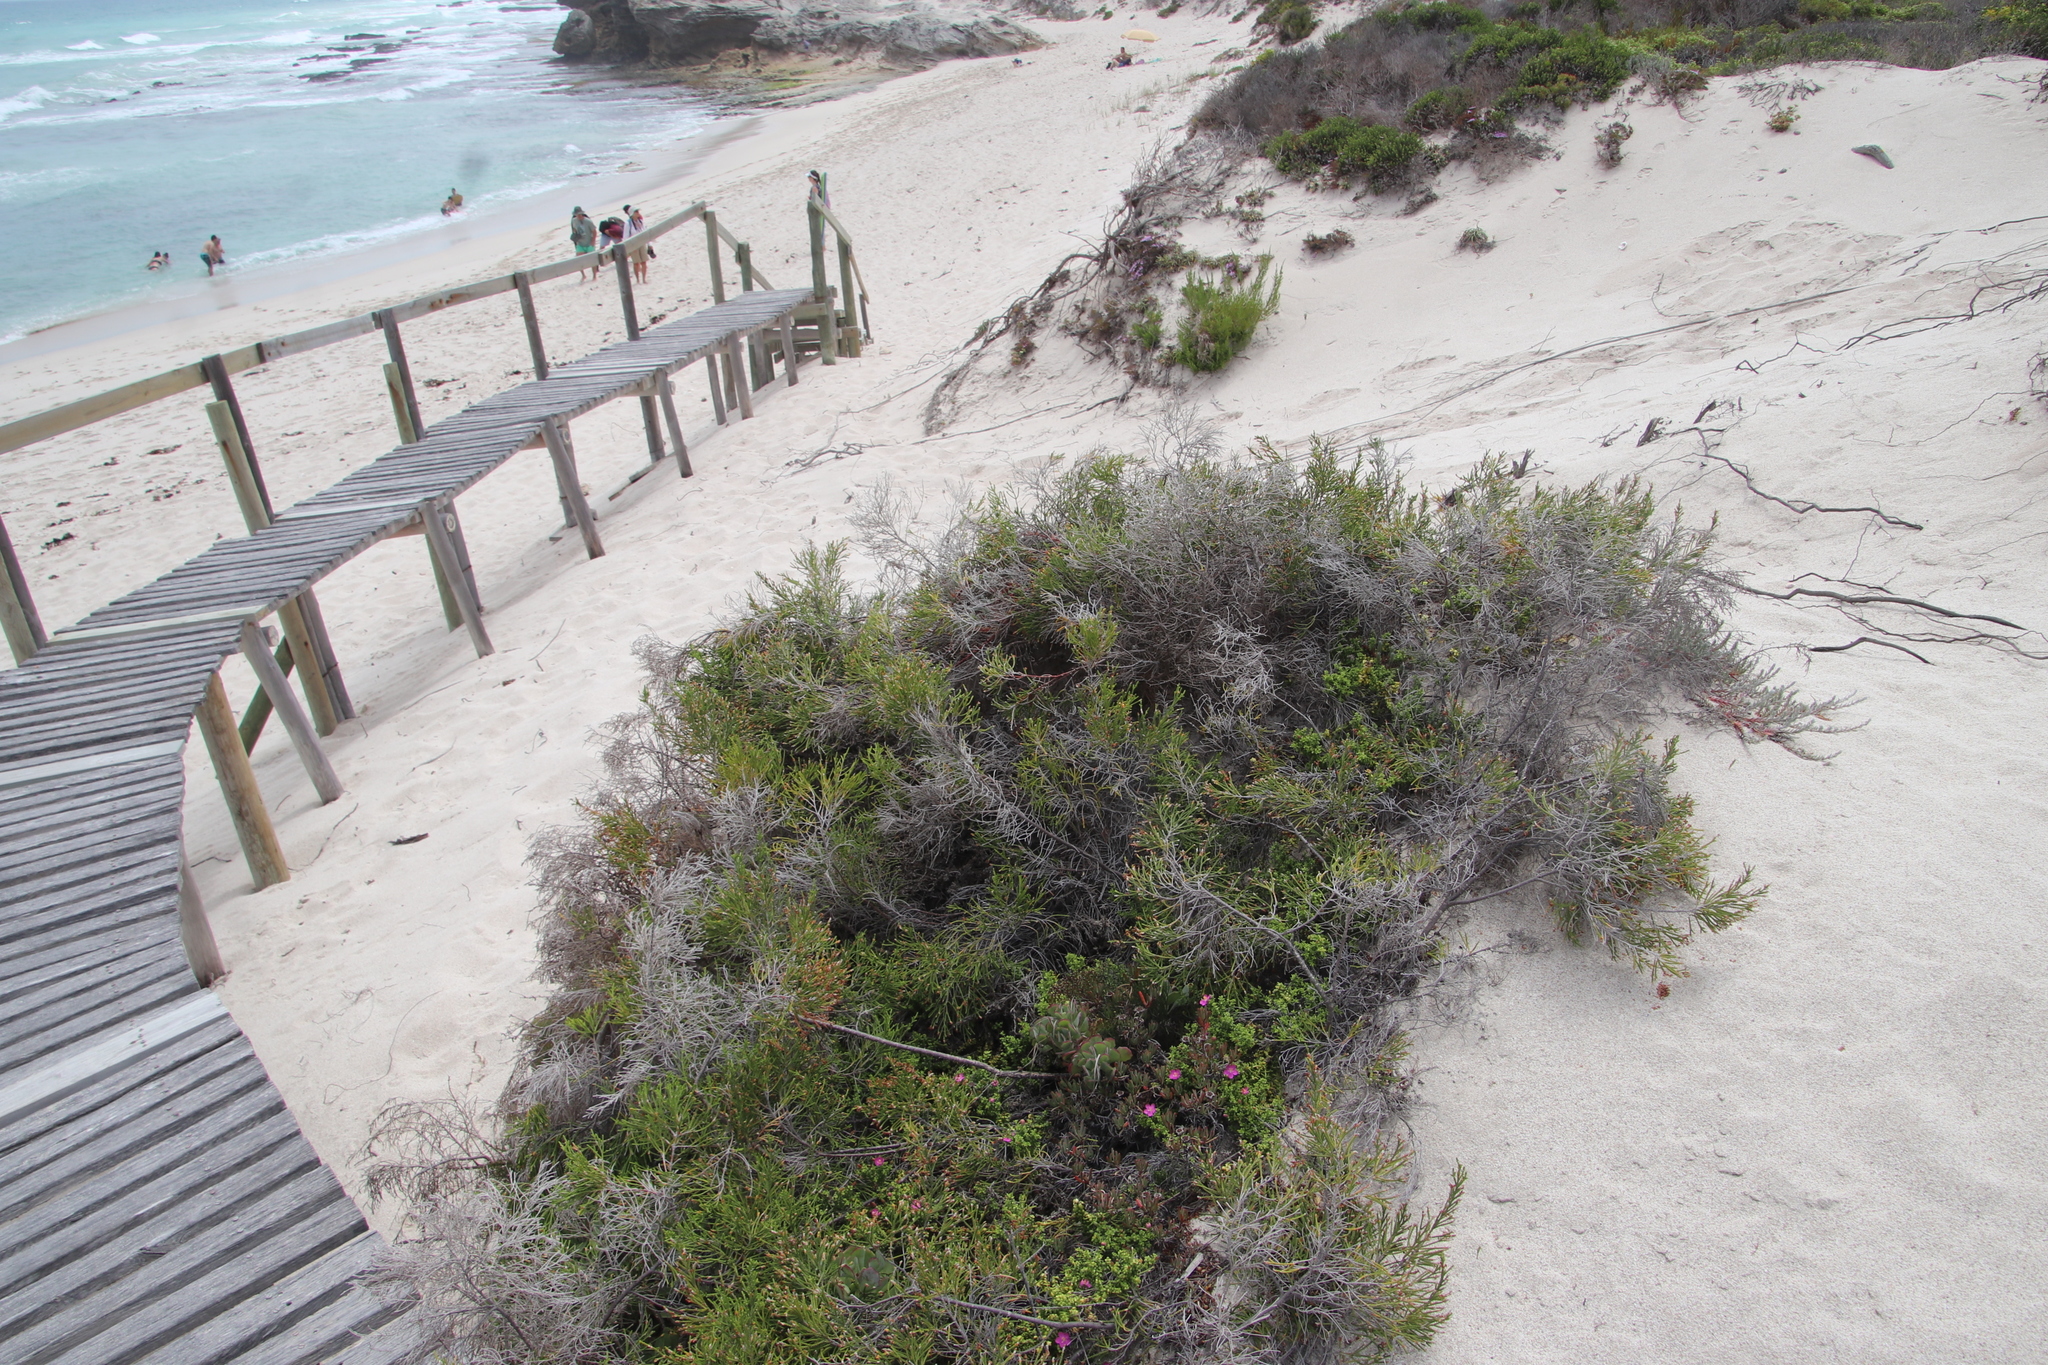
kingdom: Plantae
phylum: Tracheophyta
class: Magnoliopsida
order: Malvales
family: Thymelaeaceae
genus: Passerina
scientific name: Passerina rigida
